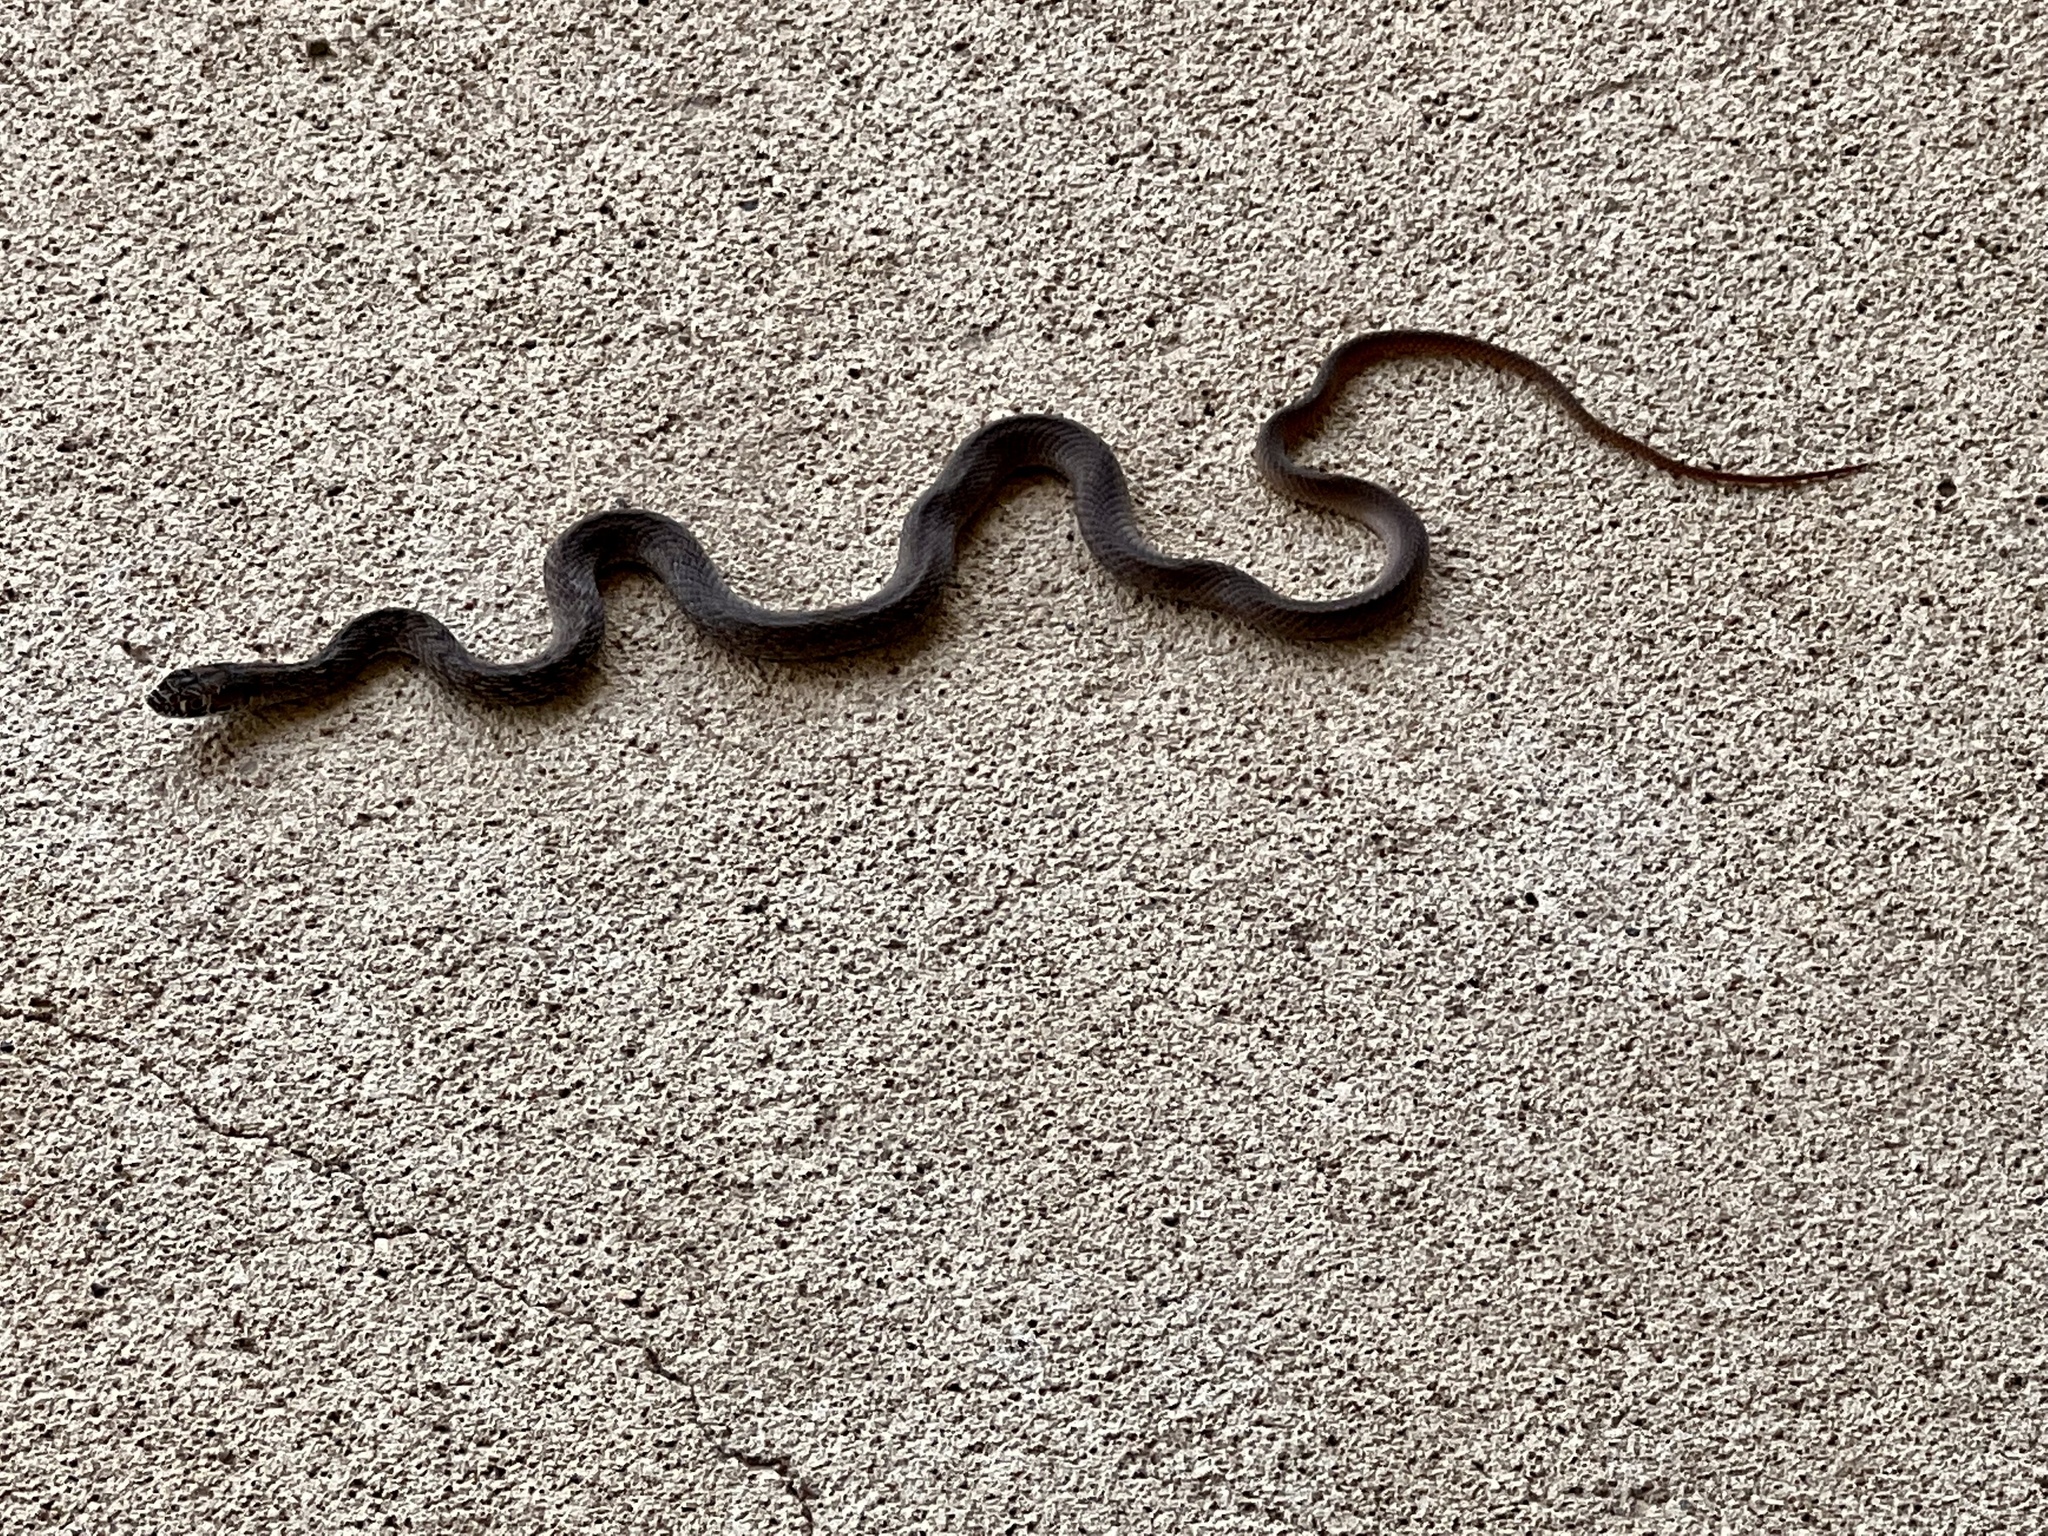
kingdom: Animalia
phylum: Chordata
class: Squamata
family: Colubridae
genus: Masticophis
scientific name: Masticophis flagellum
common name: Coachwhip
